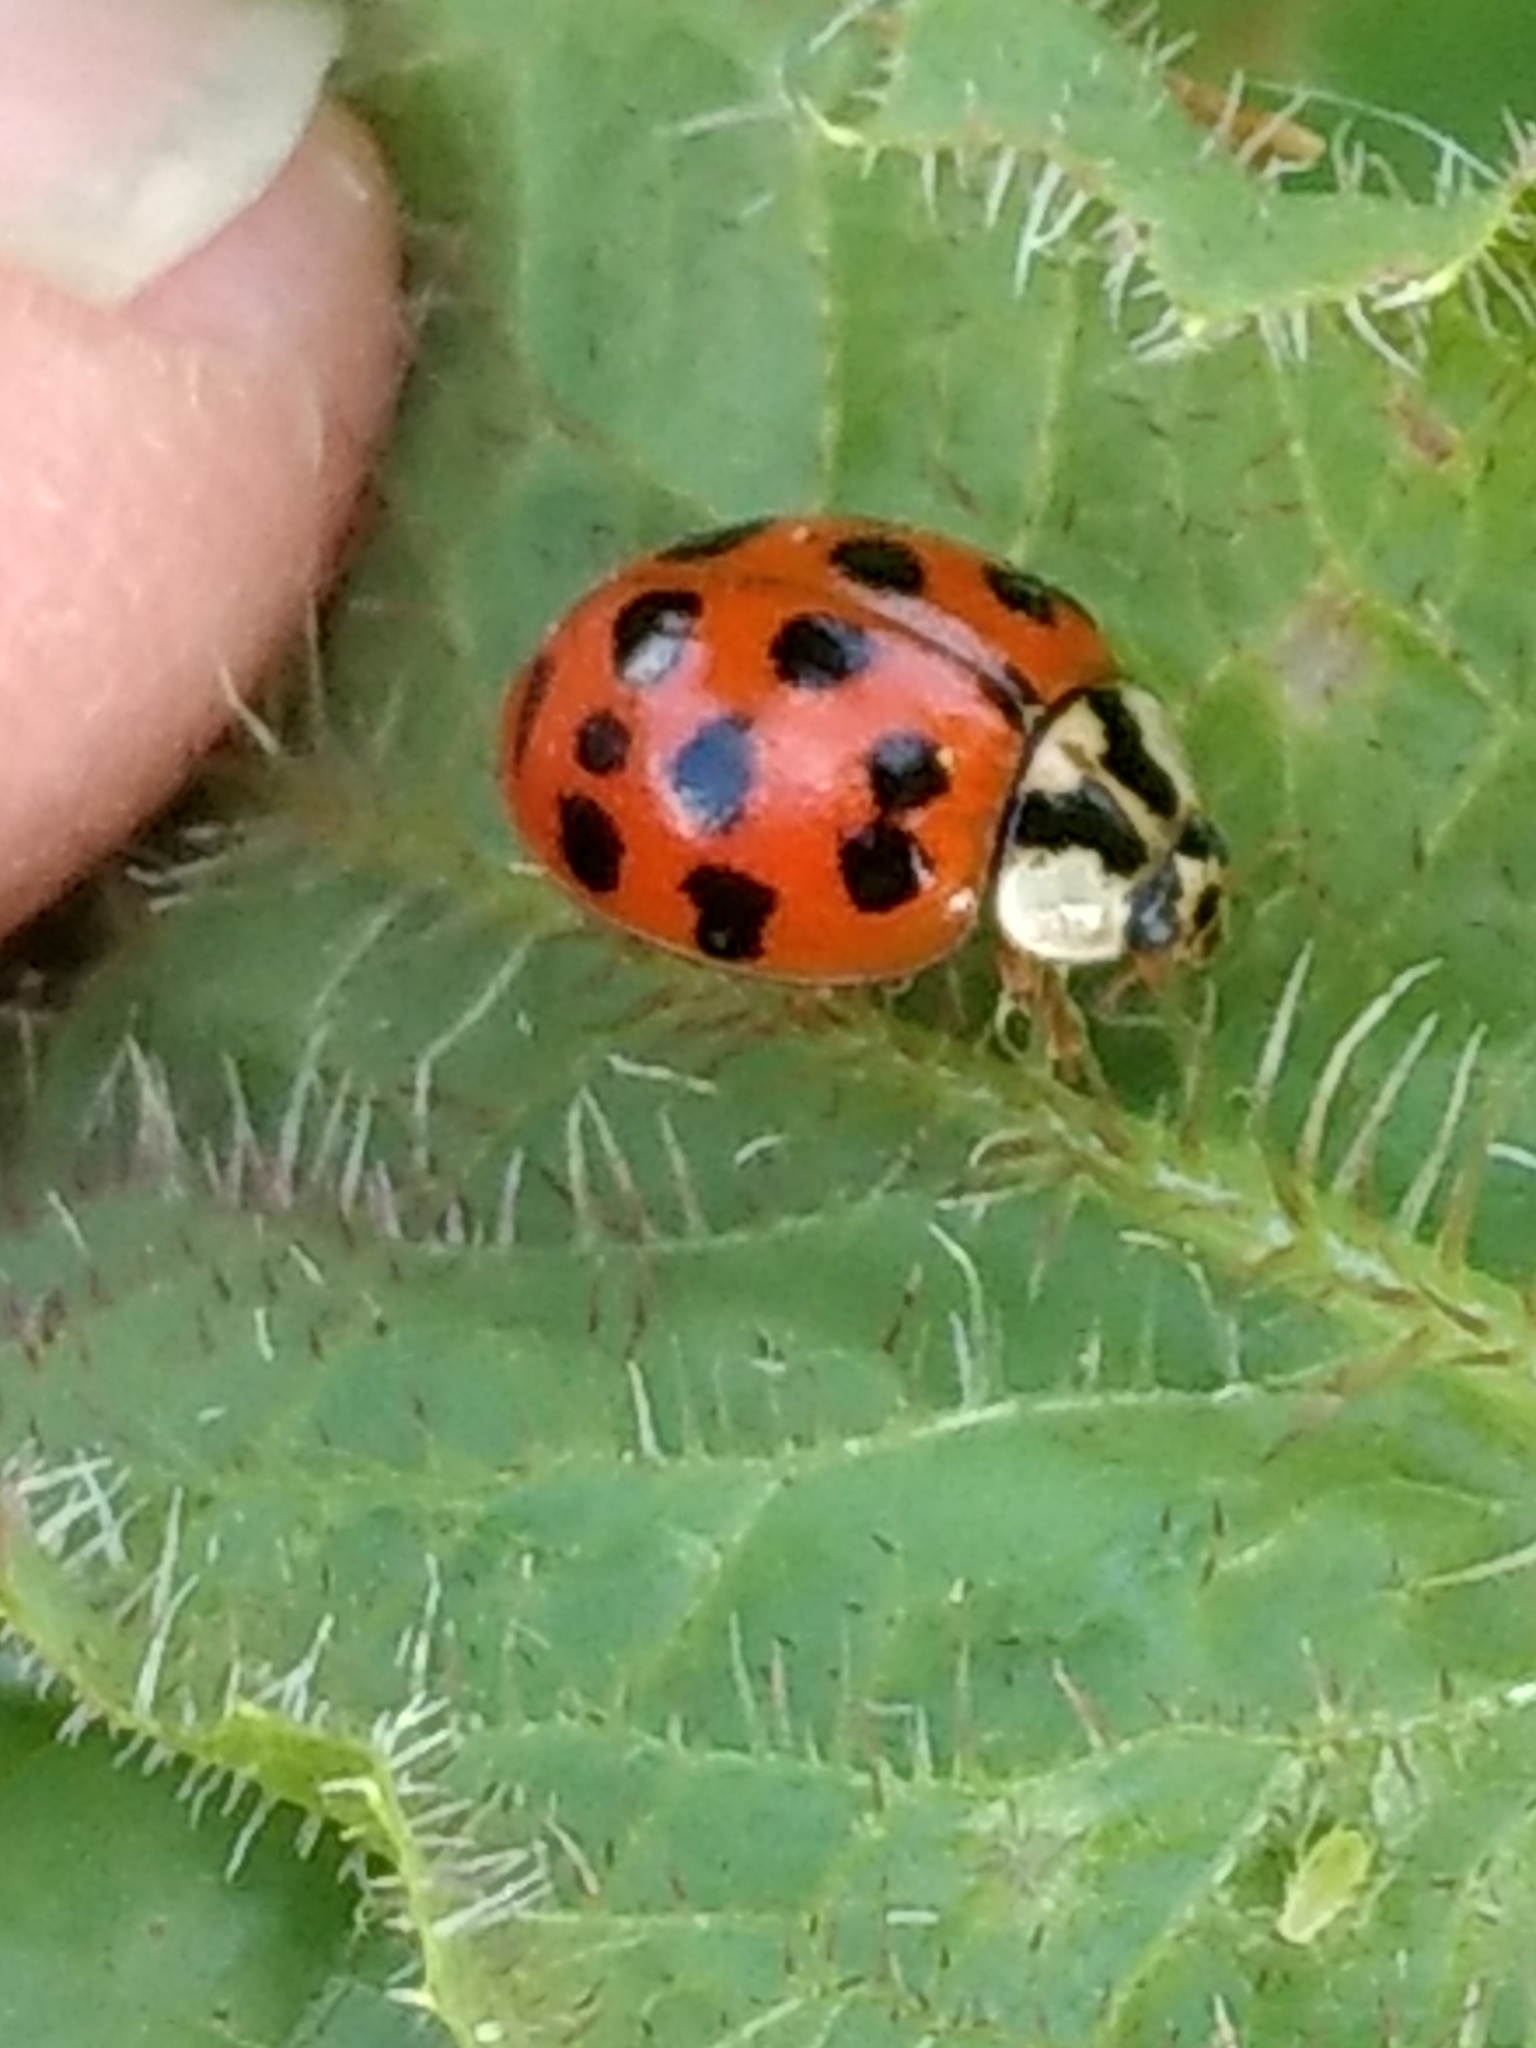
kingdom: Animalia
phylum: Arthropoda
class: Insecta
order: Coleoptera
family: Coccinellidae
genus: Harmonia
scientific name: Harmonia axyridis
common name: Harlequin ladybird
